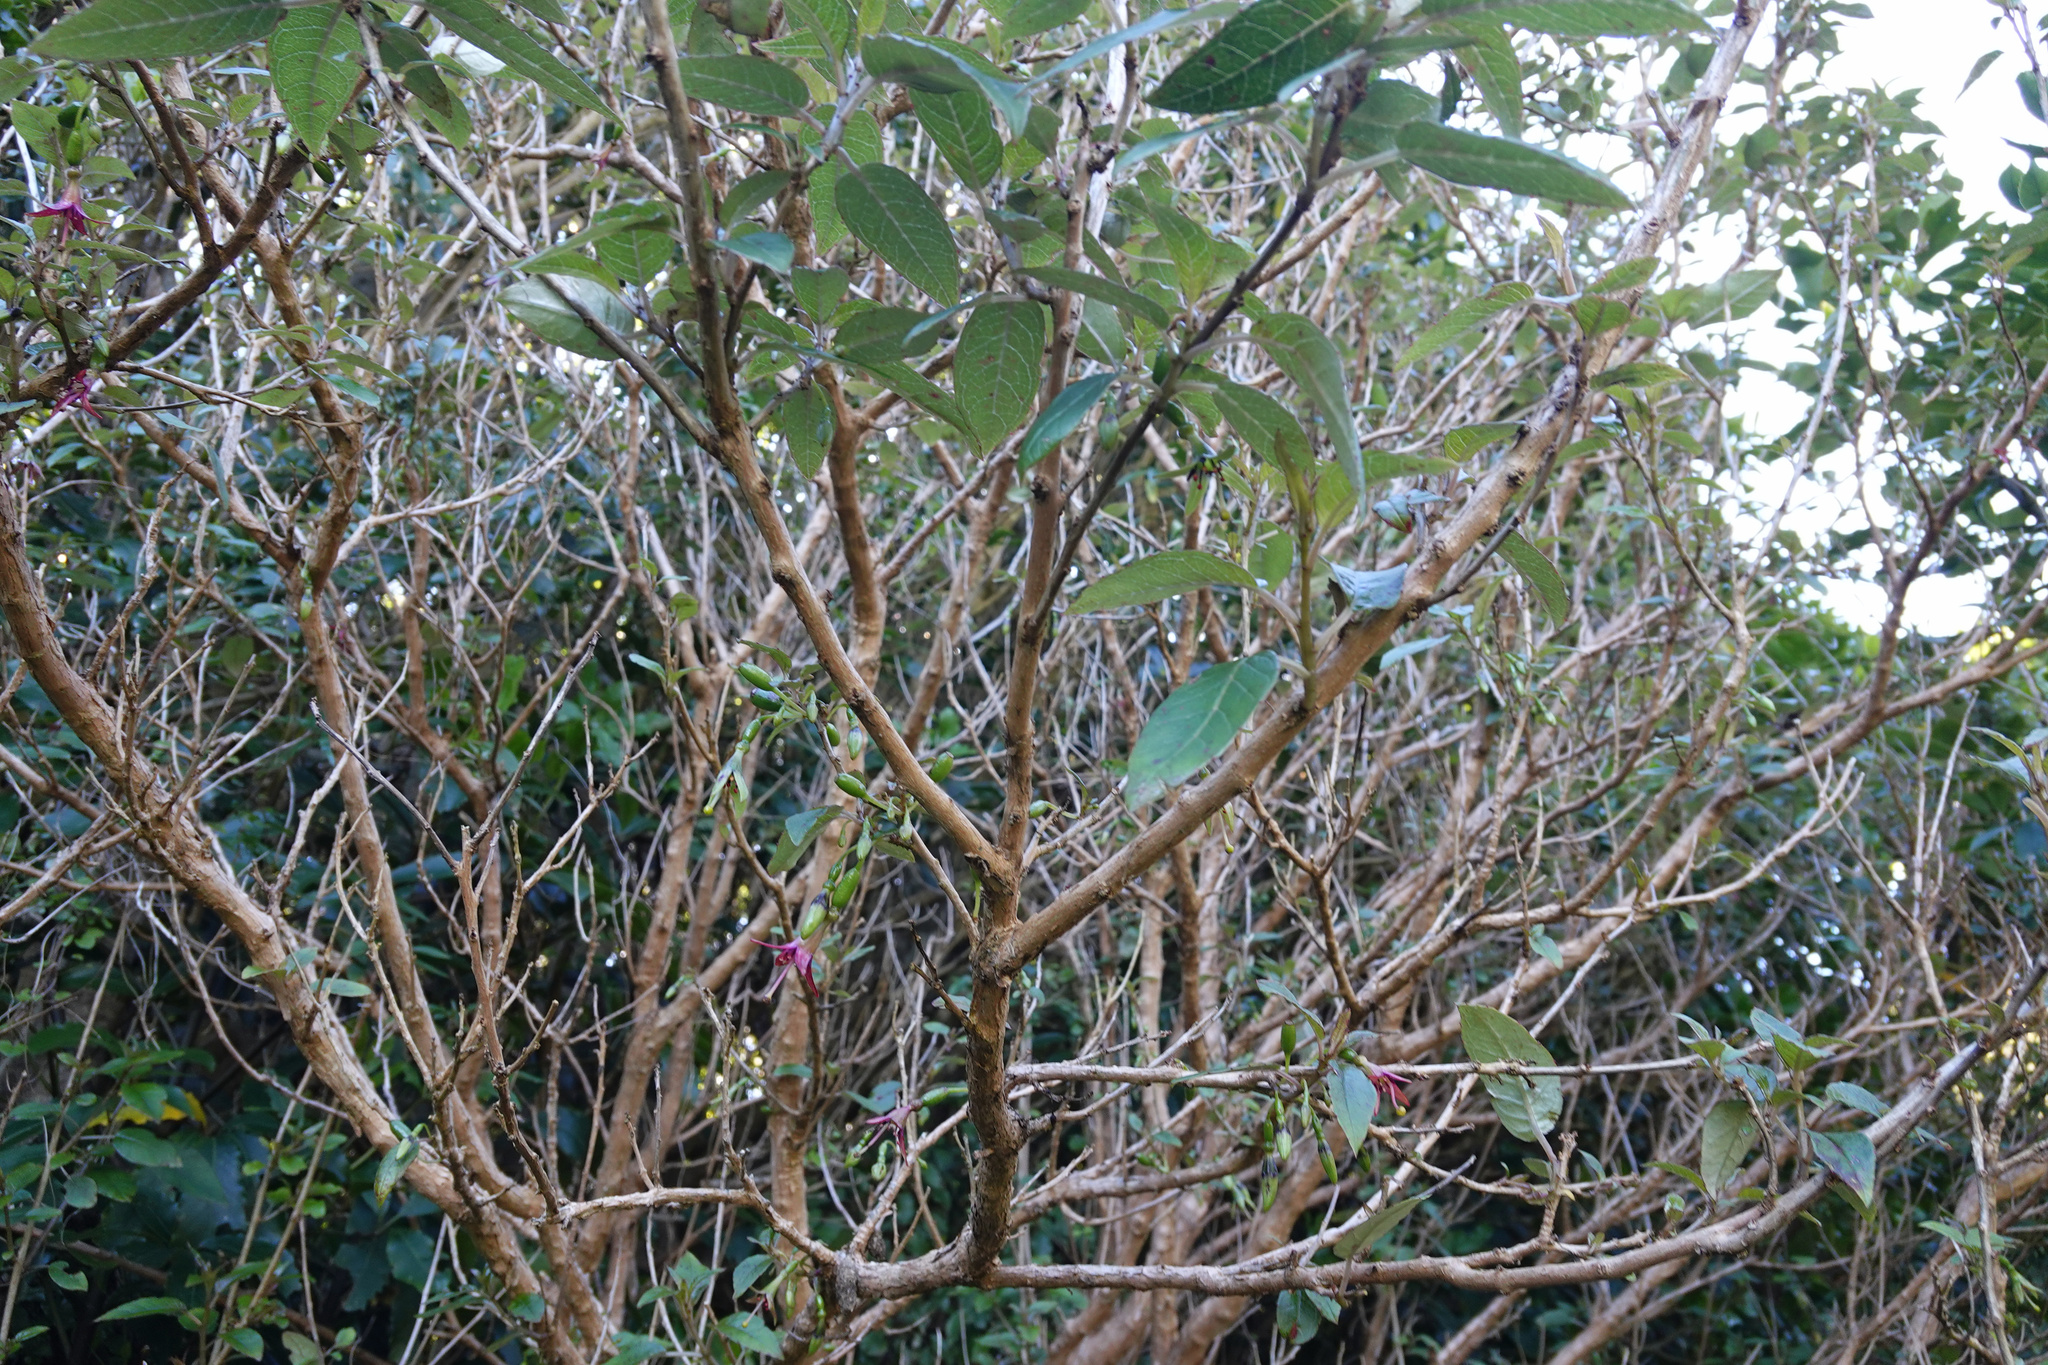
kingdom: Plantae
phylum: Tracheophyta
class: Magnoliopsida
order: Myrtales
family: Onagraceae
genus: Fuchsia
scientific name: Fuchsia excorticata
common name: Tree fuchsia
